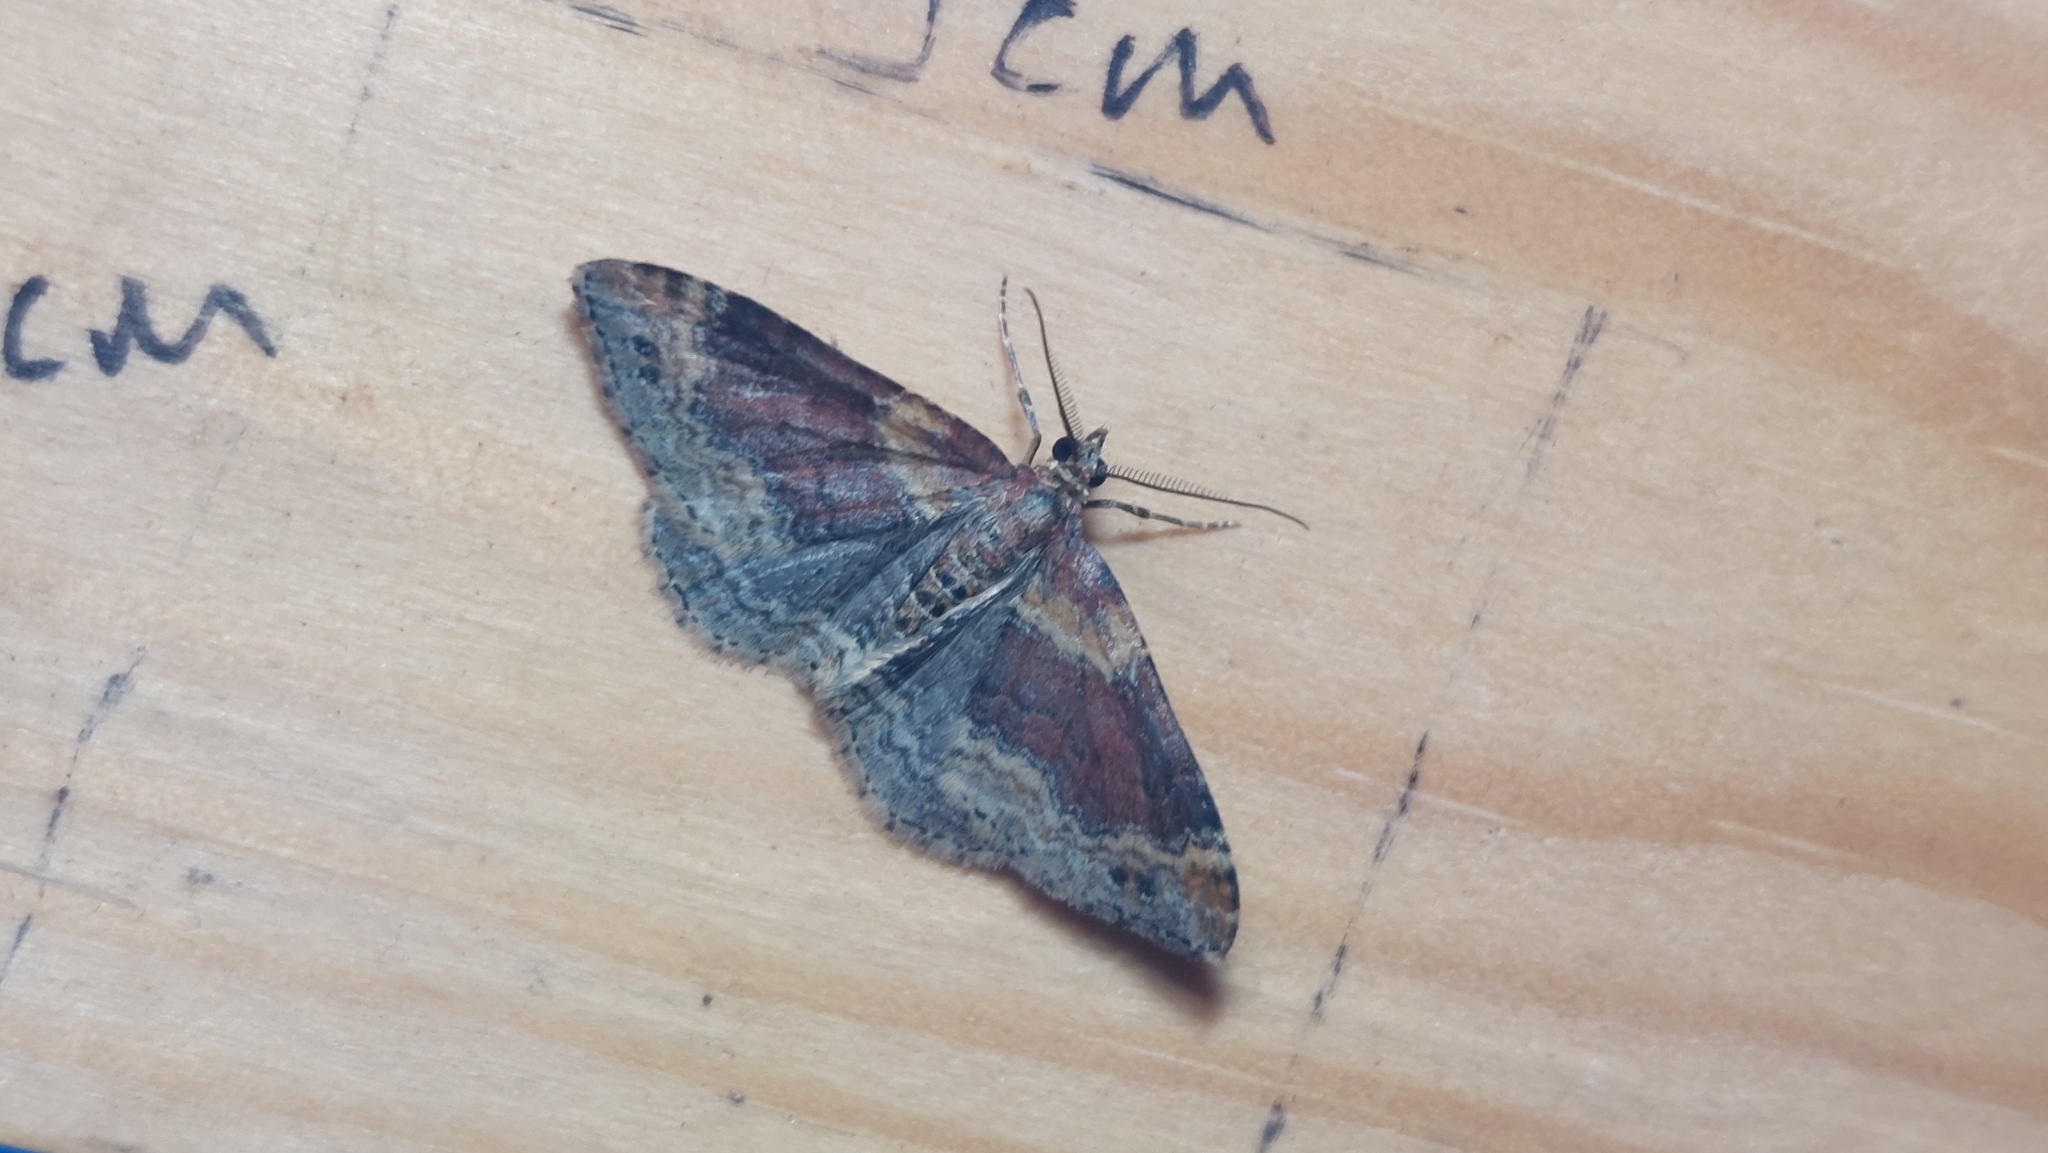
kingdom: Animalia
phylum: Arthropoda
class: Insecta
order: Lepidoptera
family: Geometridae
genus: Xanthorhoe
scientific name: Xanthorhoe spadicearia
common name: Red twin-spot carpet
